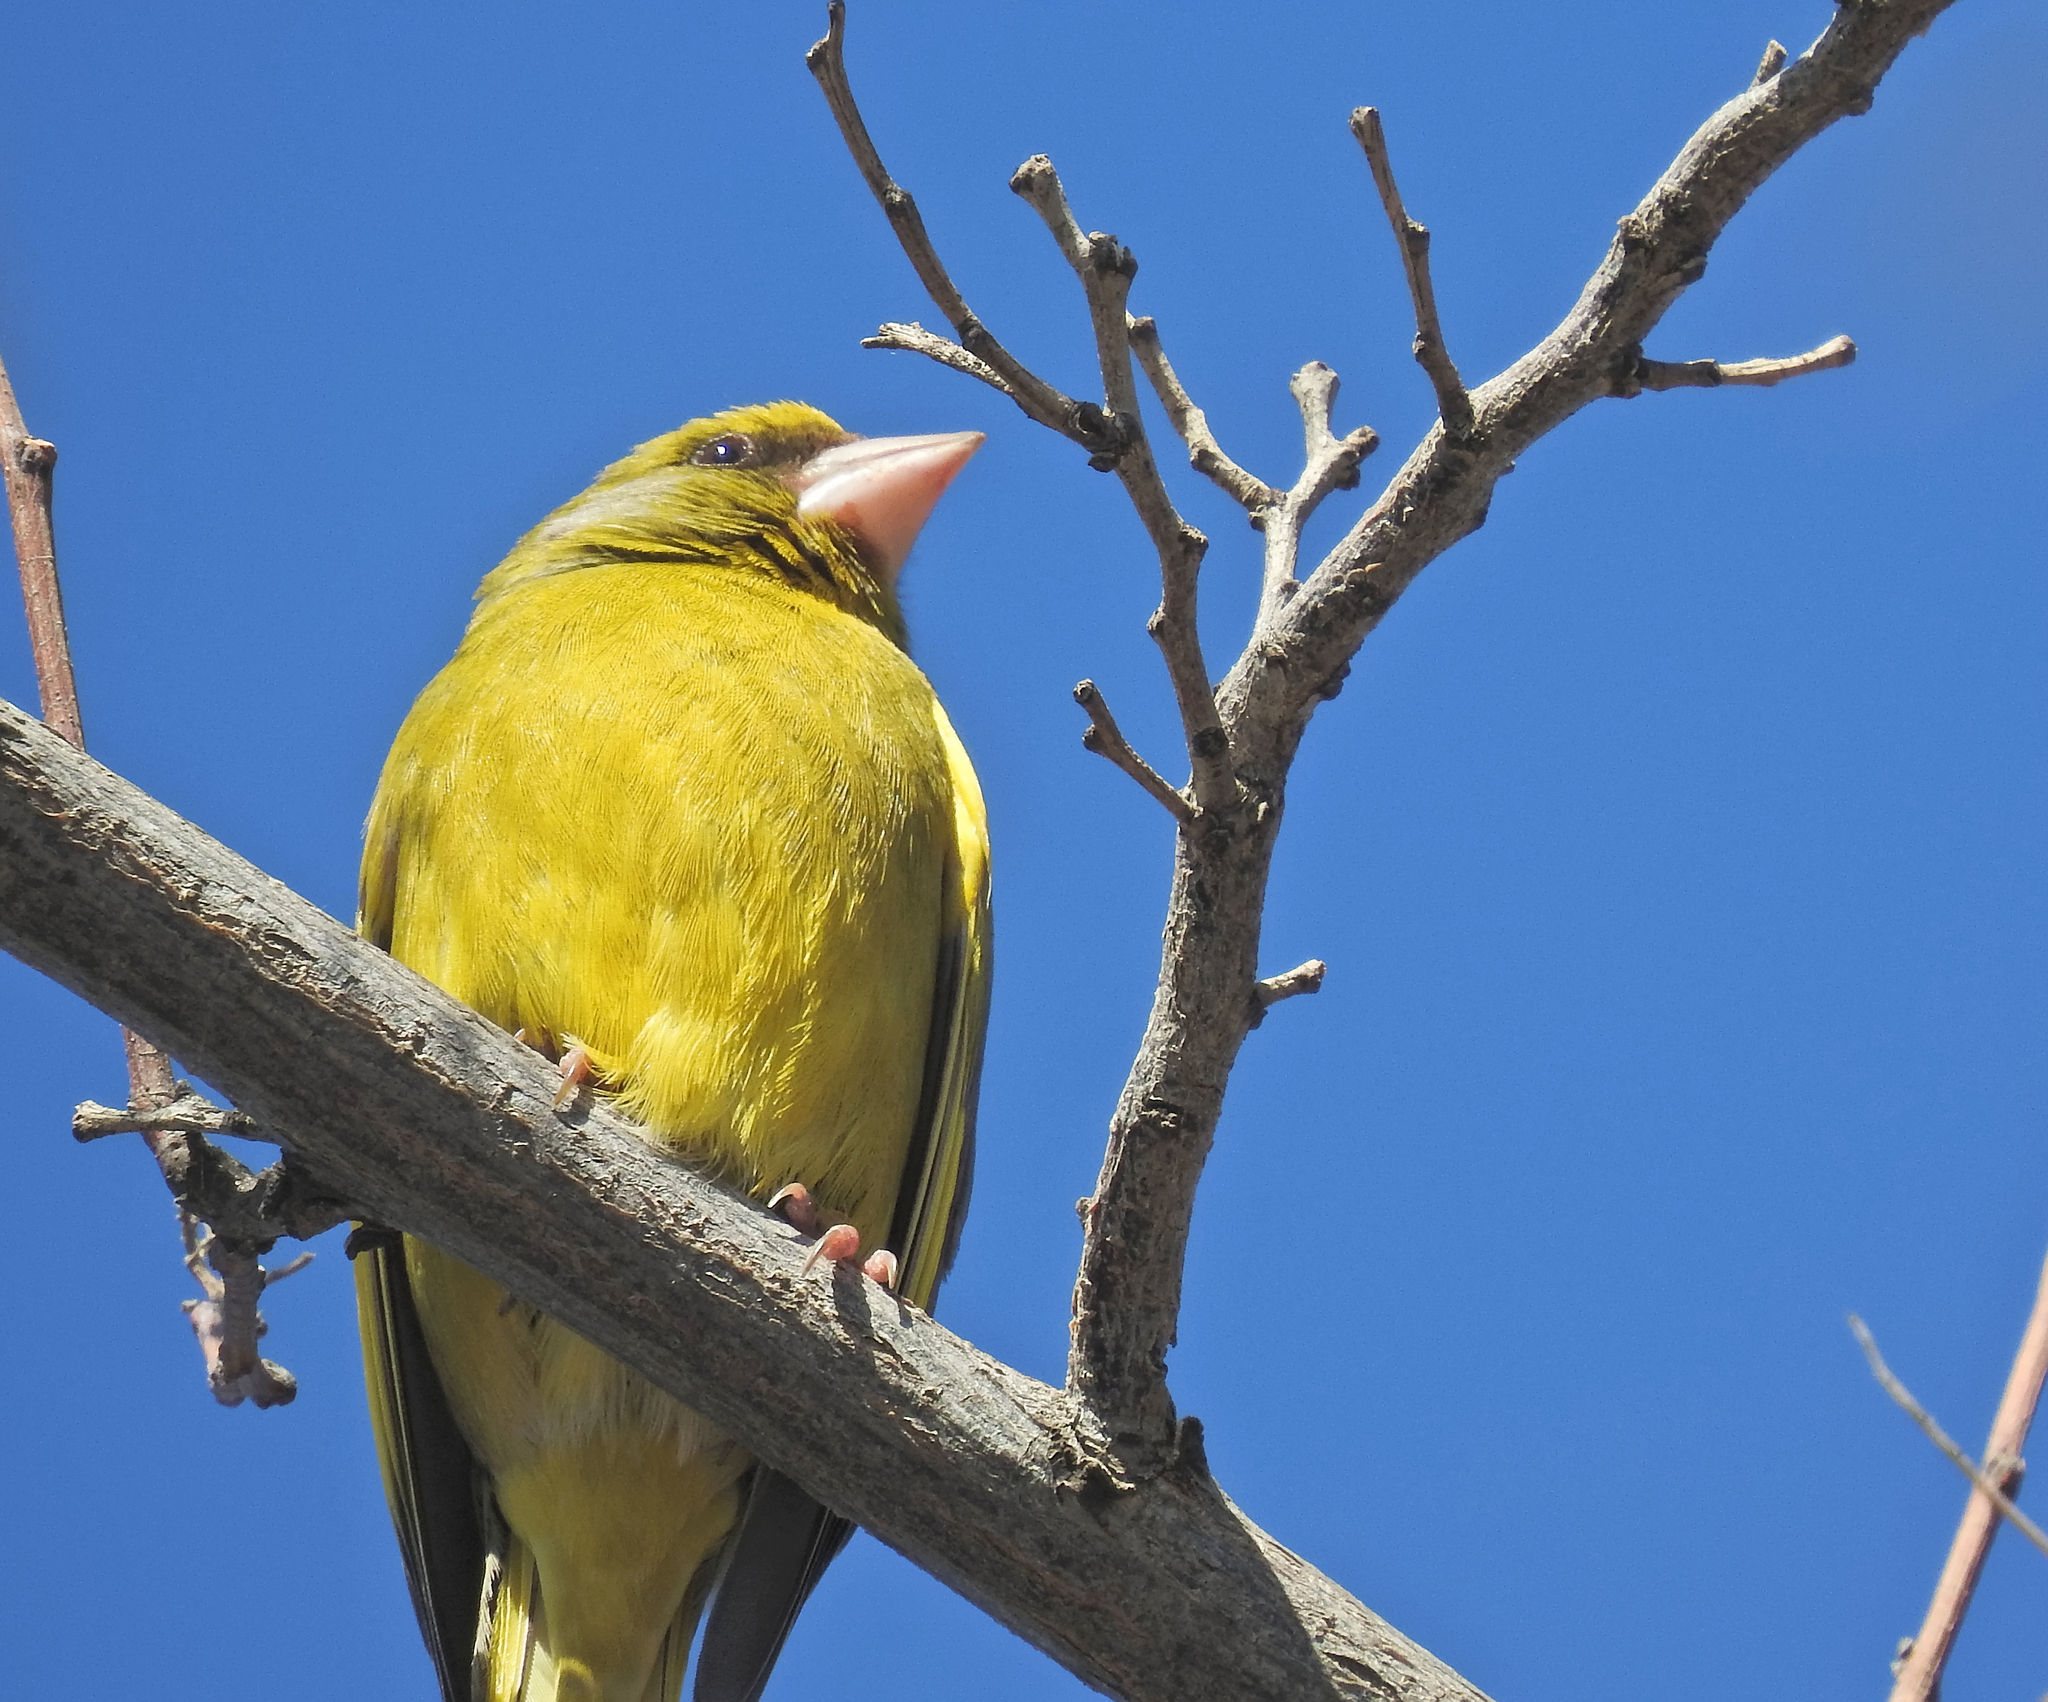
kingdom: Plantae
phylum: Tracheophyta
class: Liliopsida
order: Poales
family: Poaceae
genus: Chloris
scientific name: Chloris chloris
